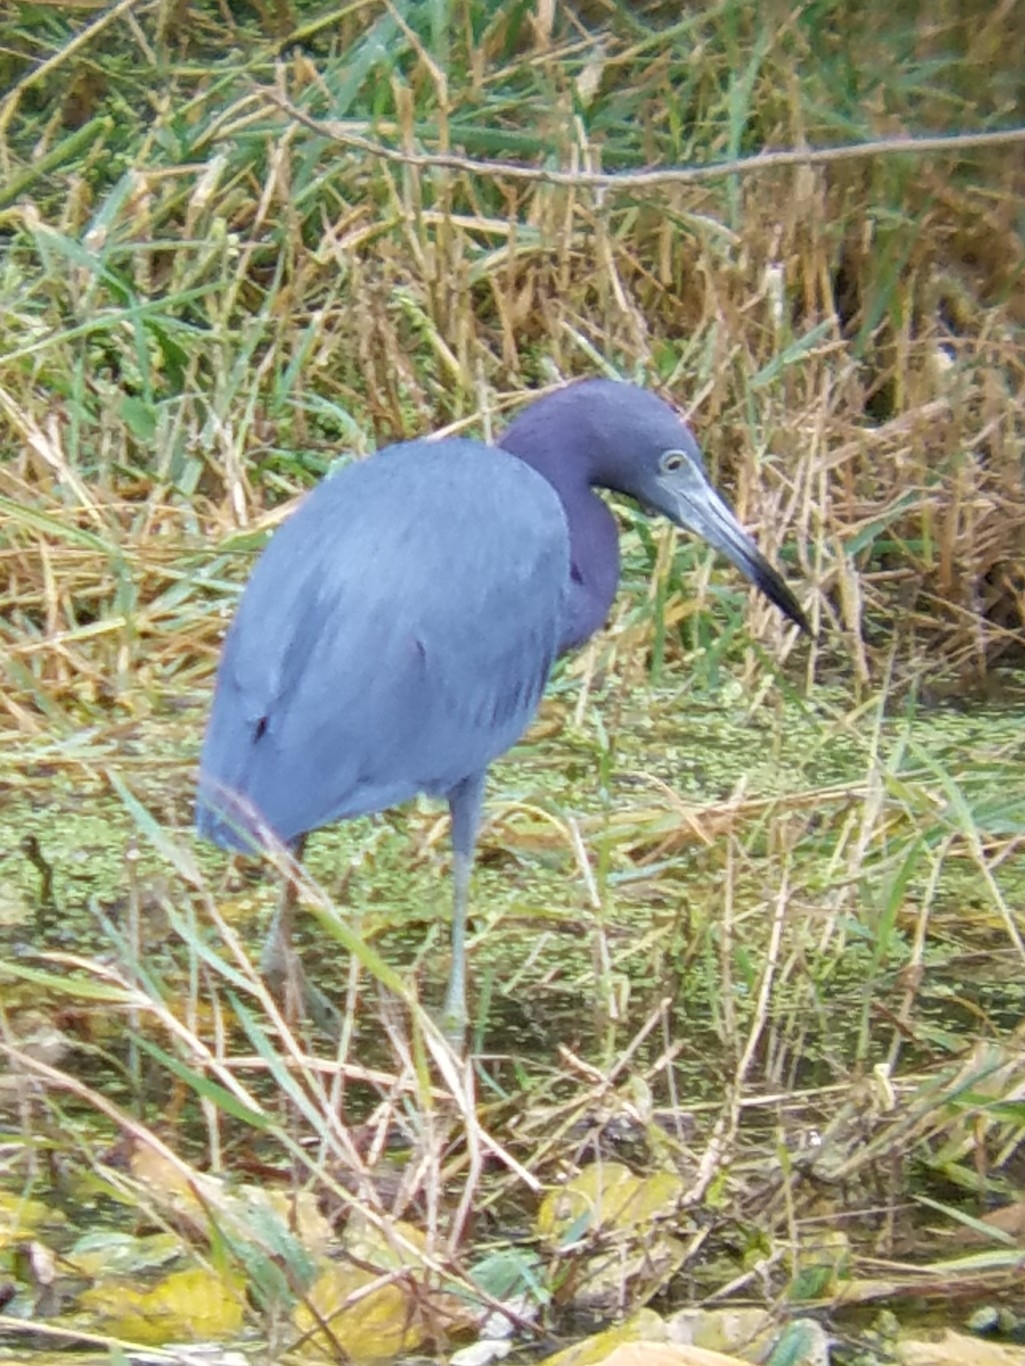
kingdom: Animalia
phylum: Chordata
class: Aves
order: Pelecaniformes
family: Ardeidae
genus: Egretta
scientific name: Egretta caerulea
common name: Little blue heron
